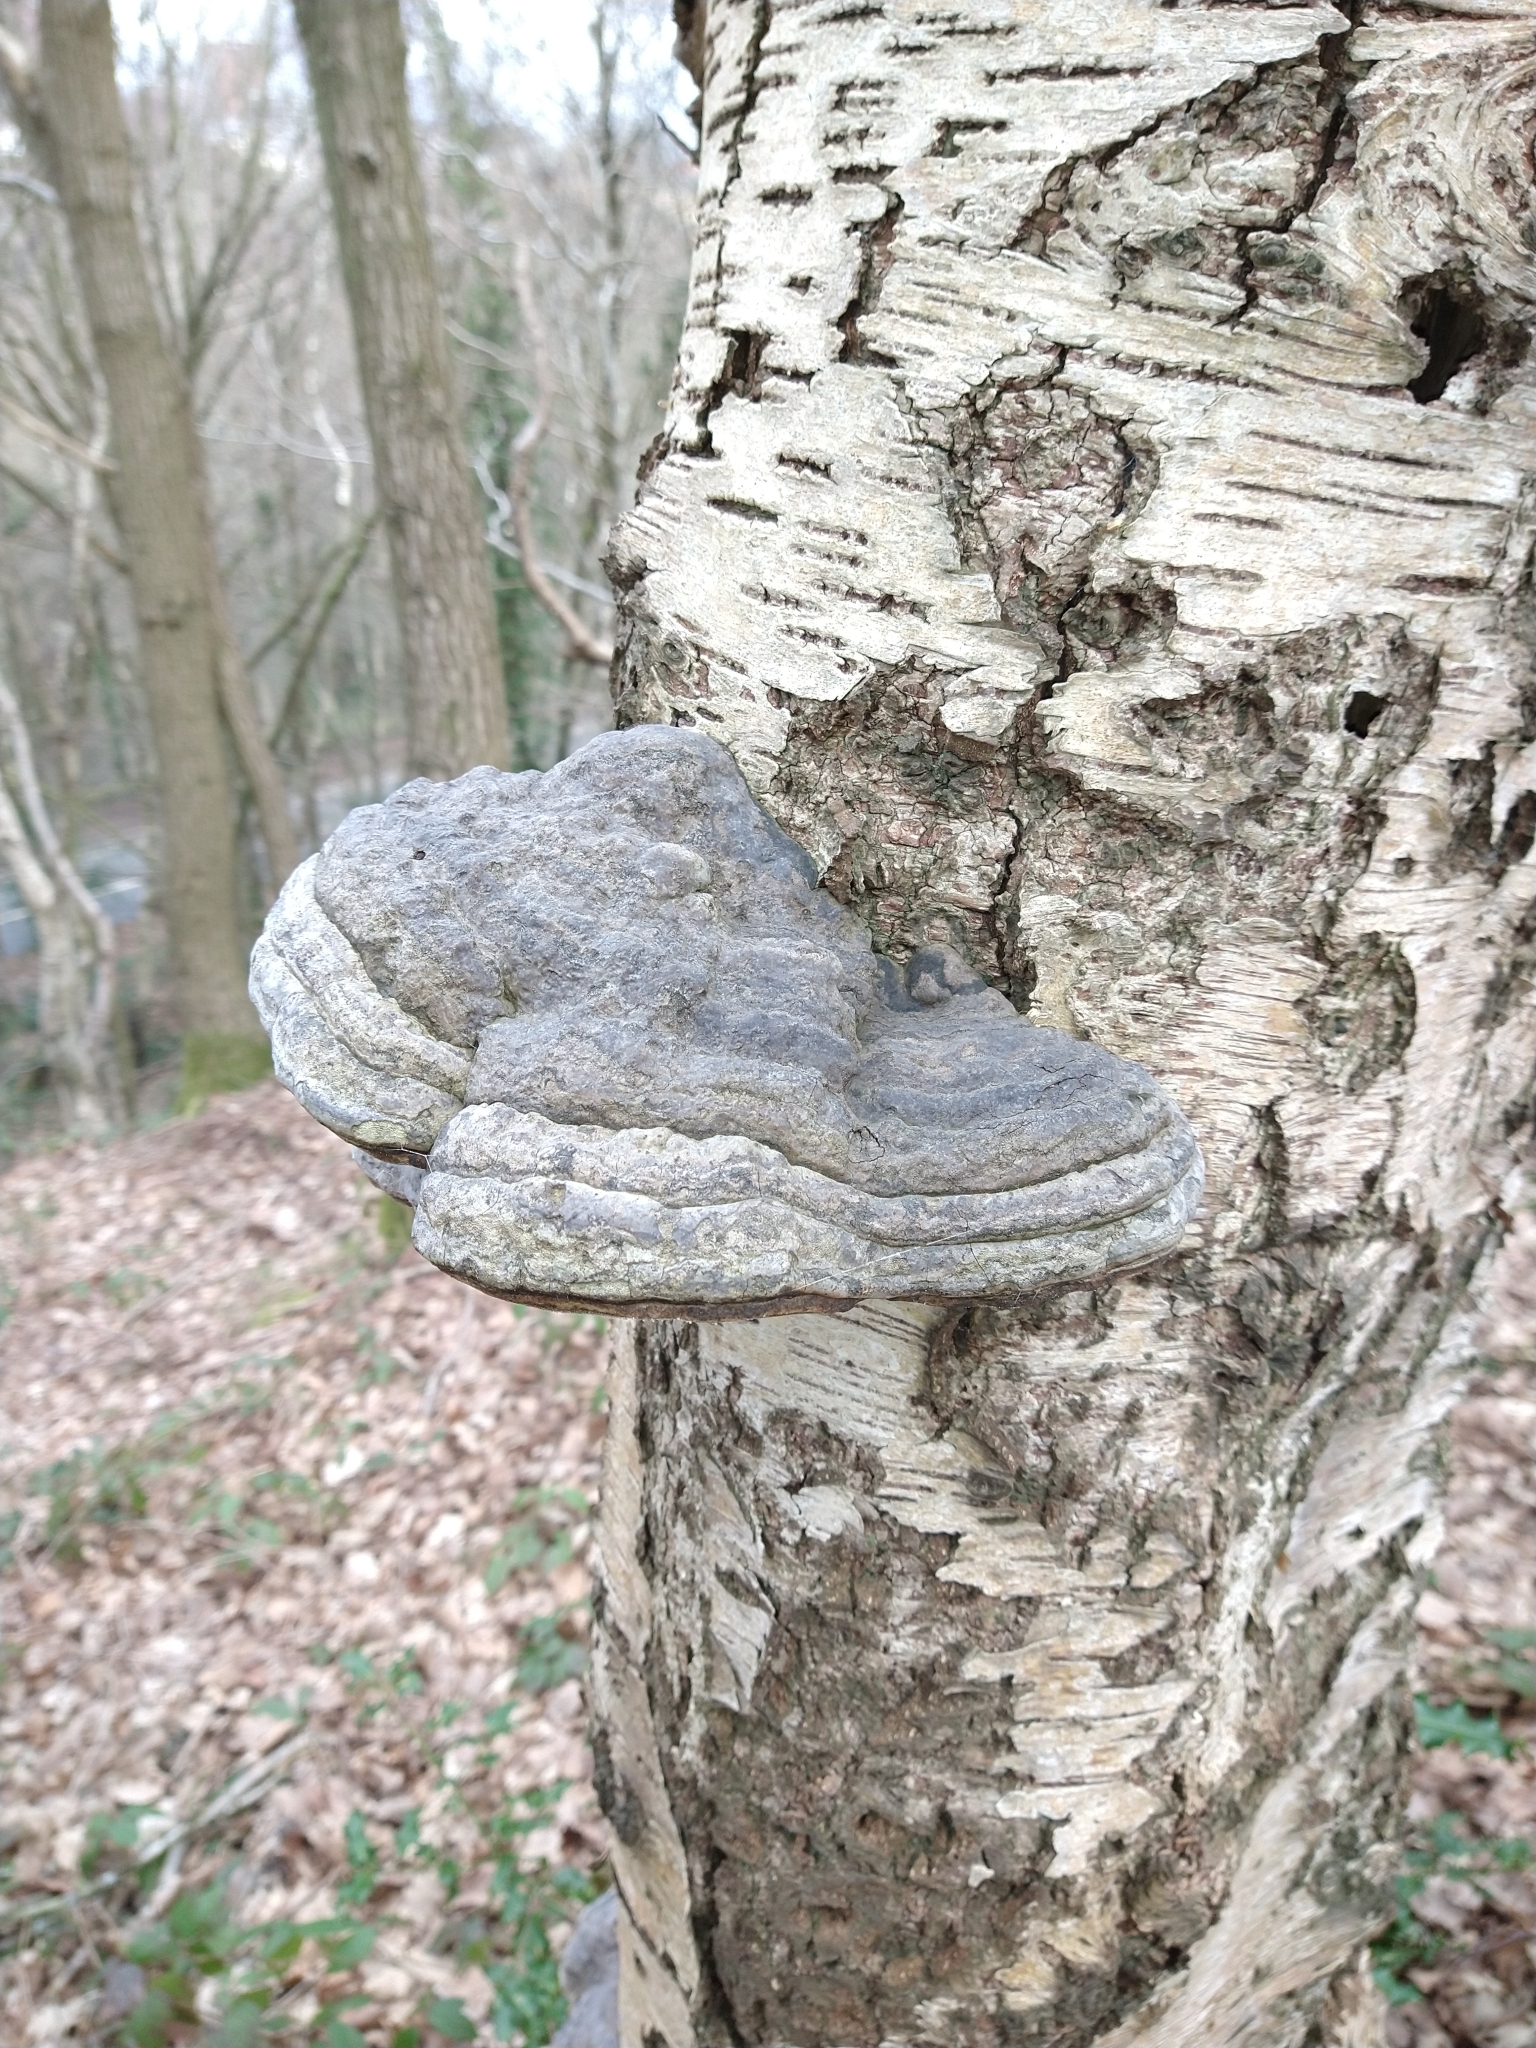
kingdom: Fungi
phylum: Basidiomycota
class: Agaricomycetes
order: Polyporales
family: Polyporaceae
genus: Fomes
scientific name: Fomes fomentarius
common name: Hoof fungus
